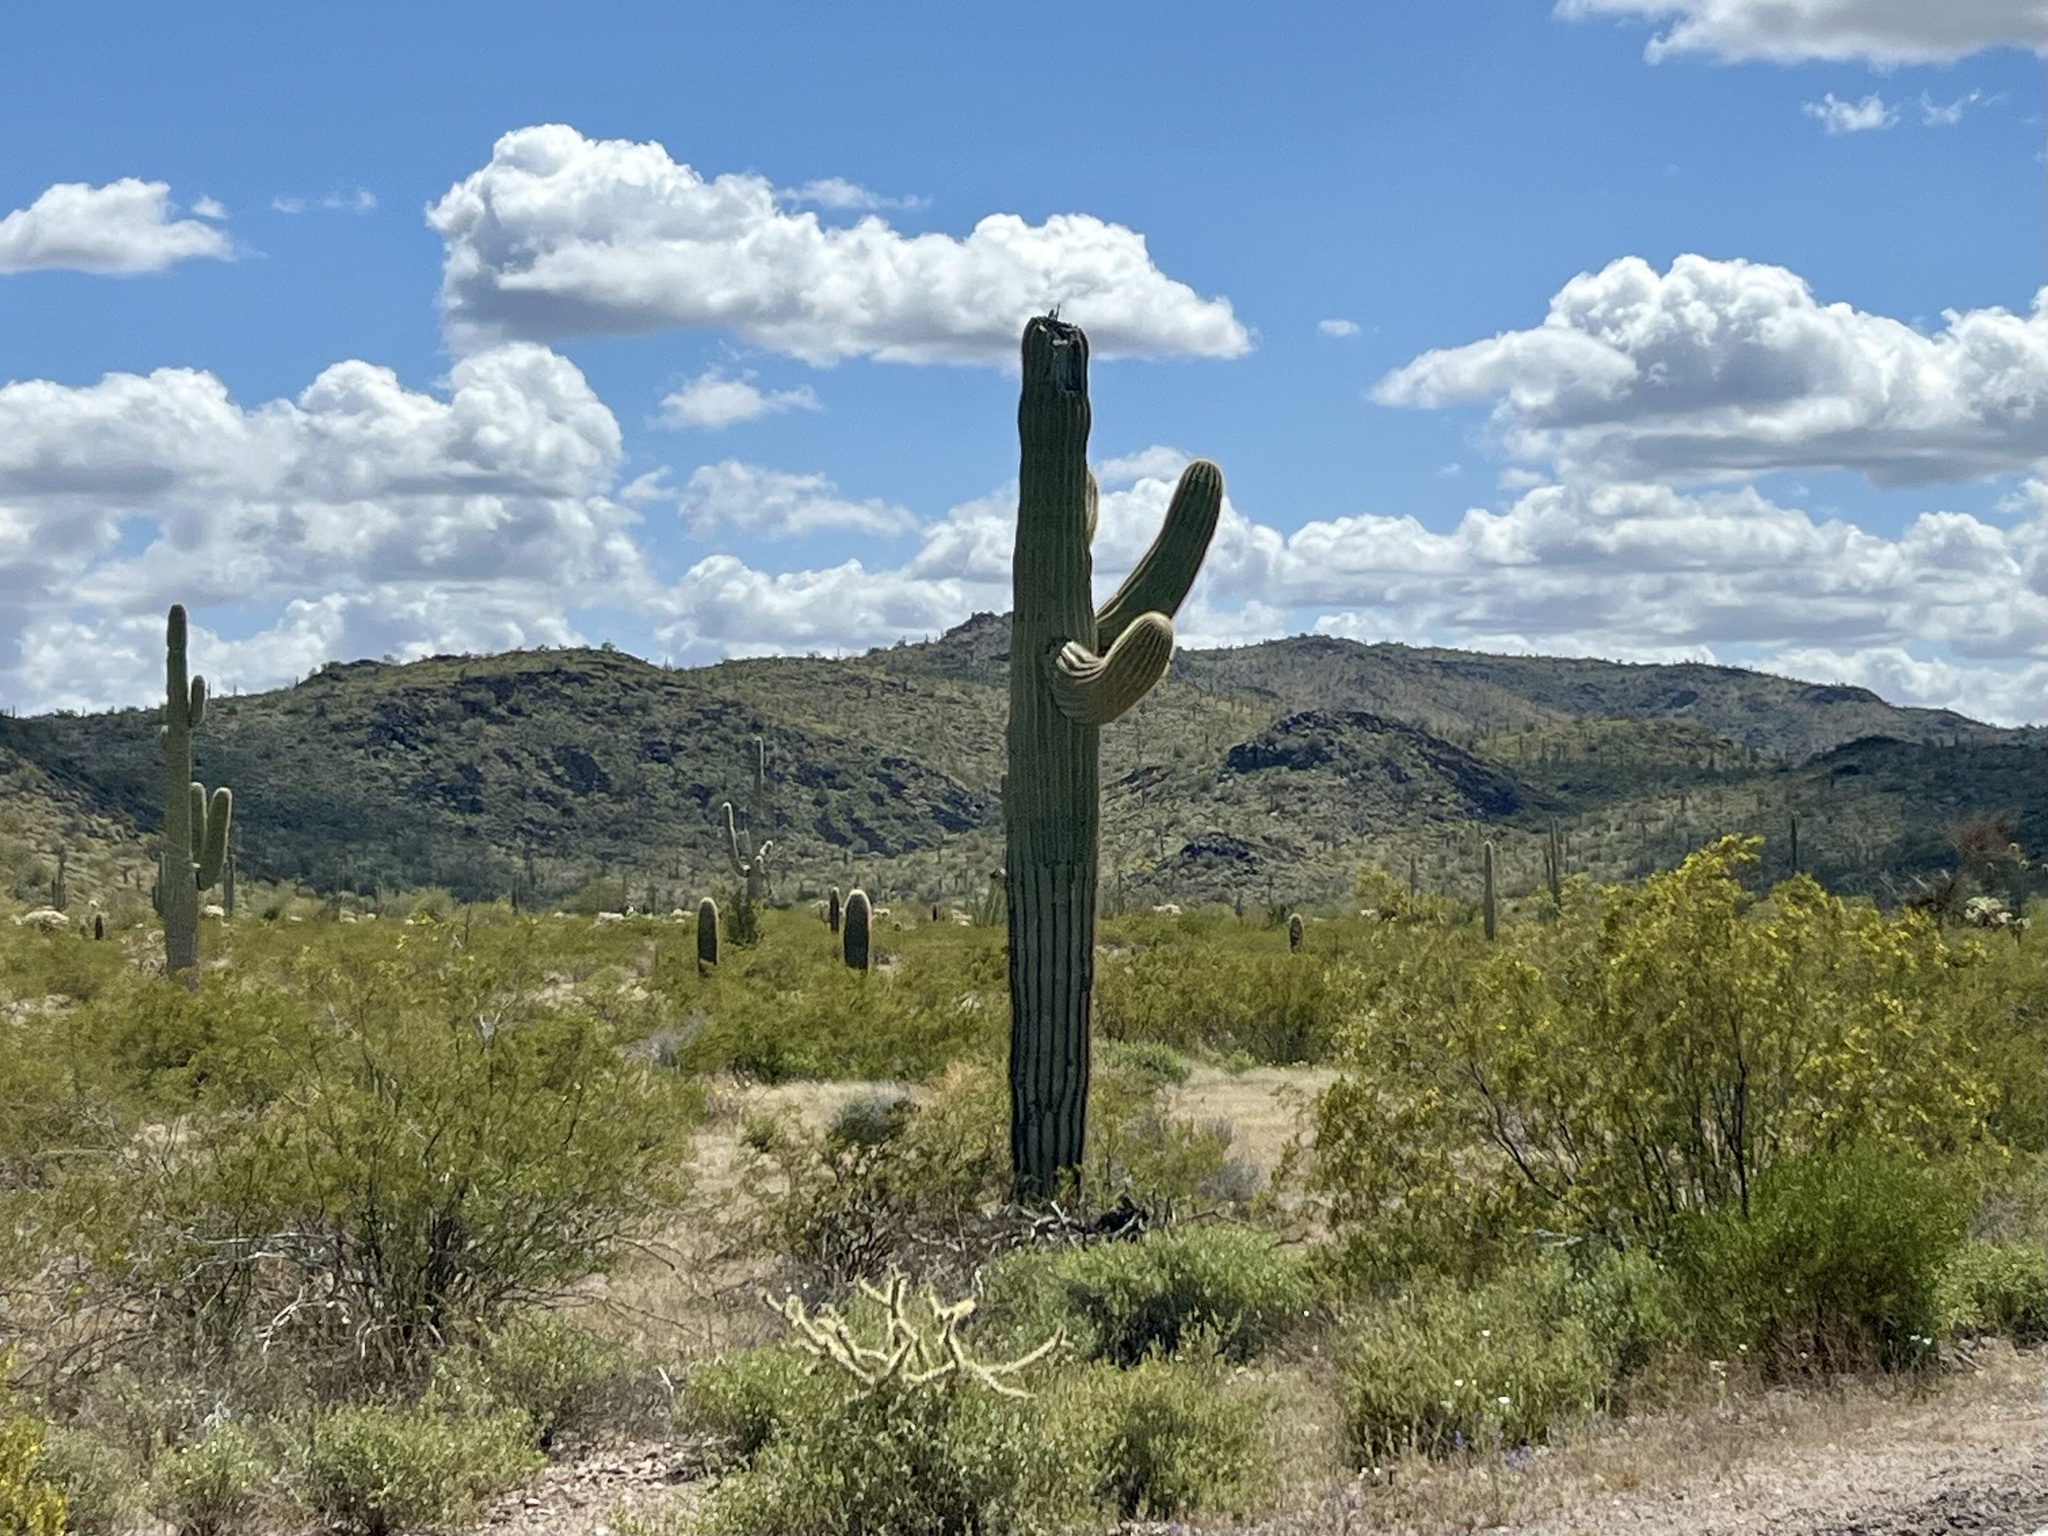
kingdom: Plantae
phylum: Tracheophyta
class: Magnoliopsida
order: Caryophyllales
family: Cactaceae
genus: Carnegiea
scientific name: Carnegiea gigantea
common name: Saguaro
